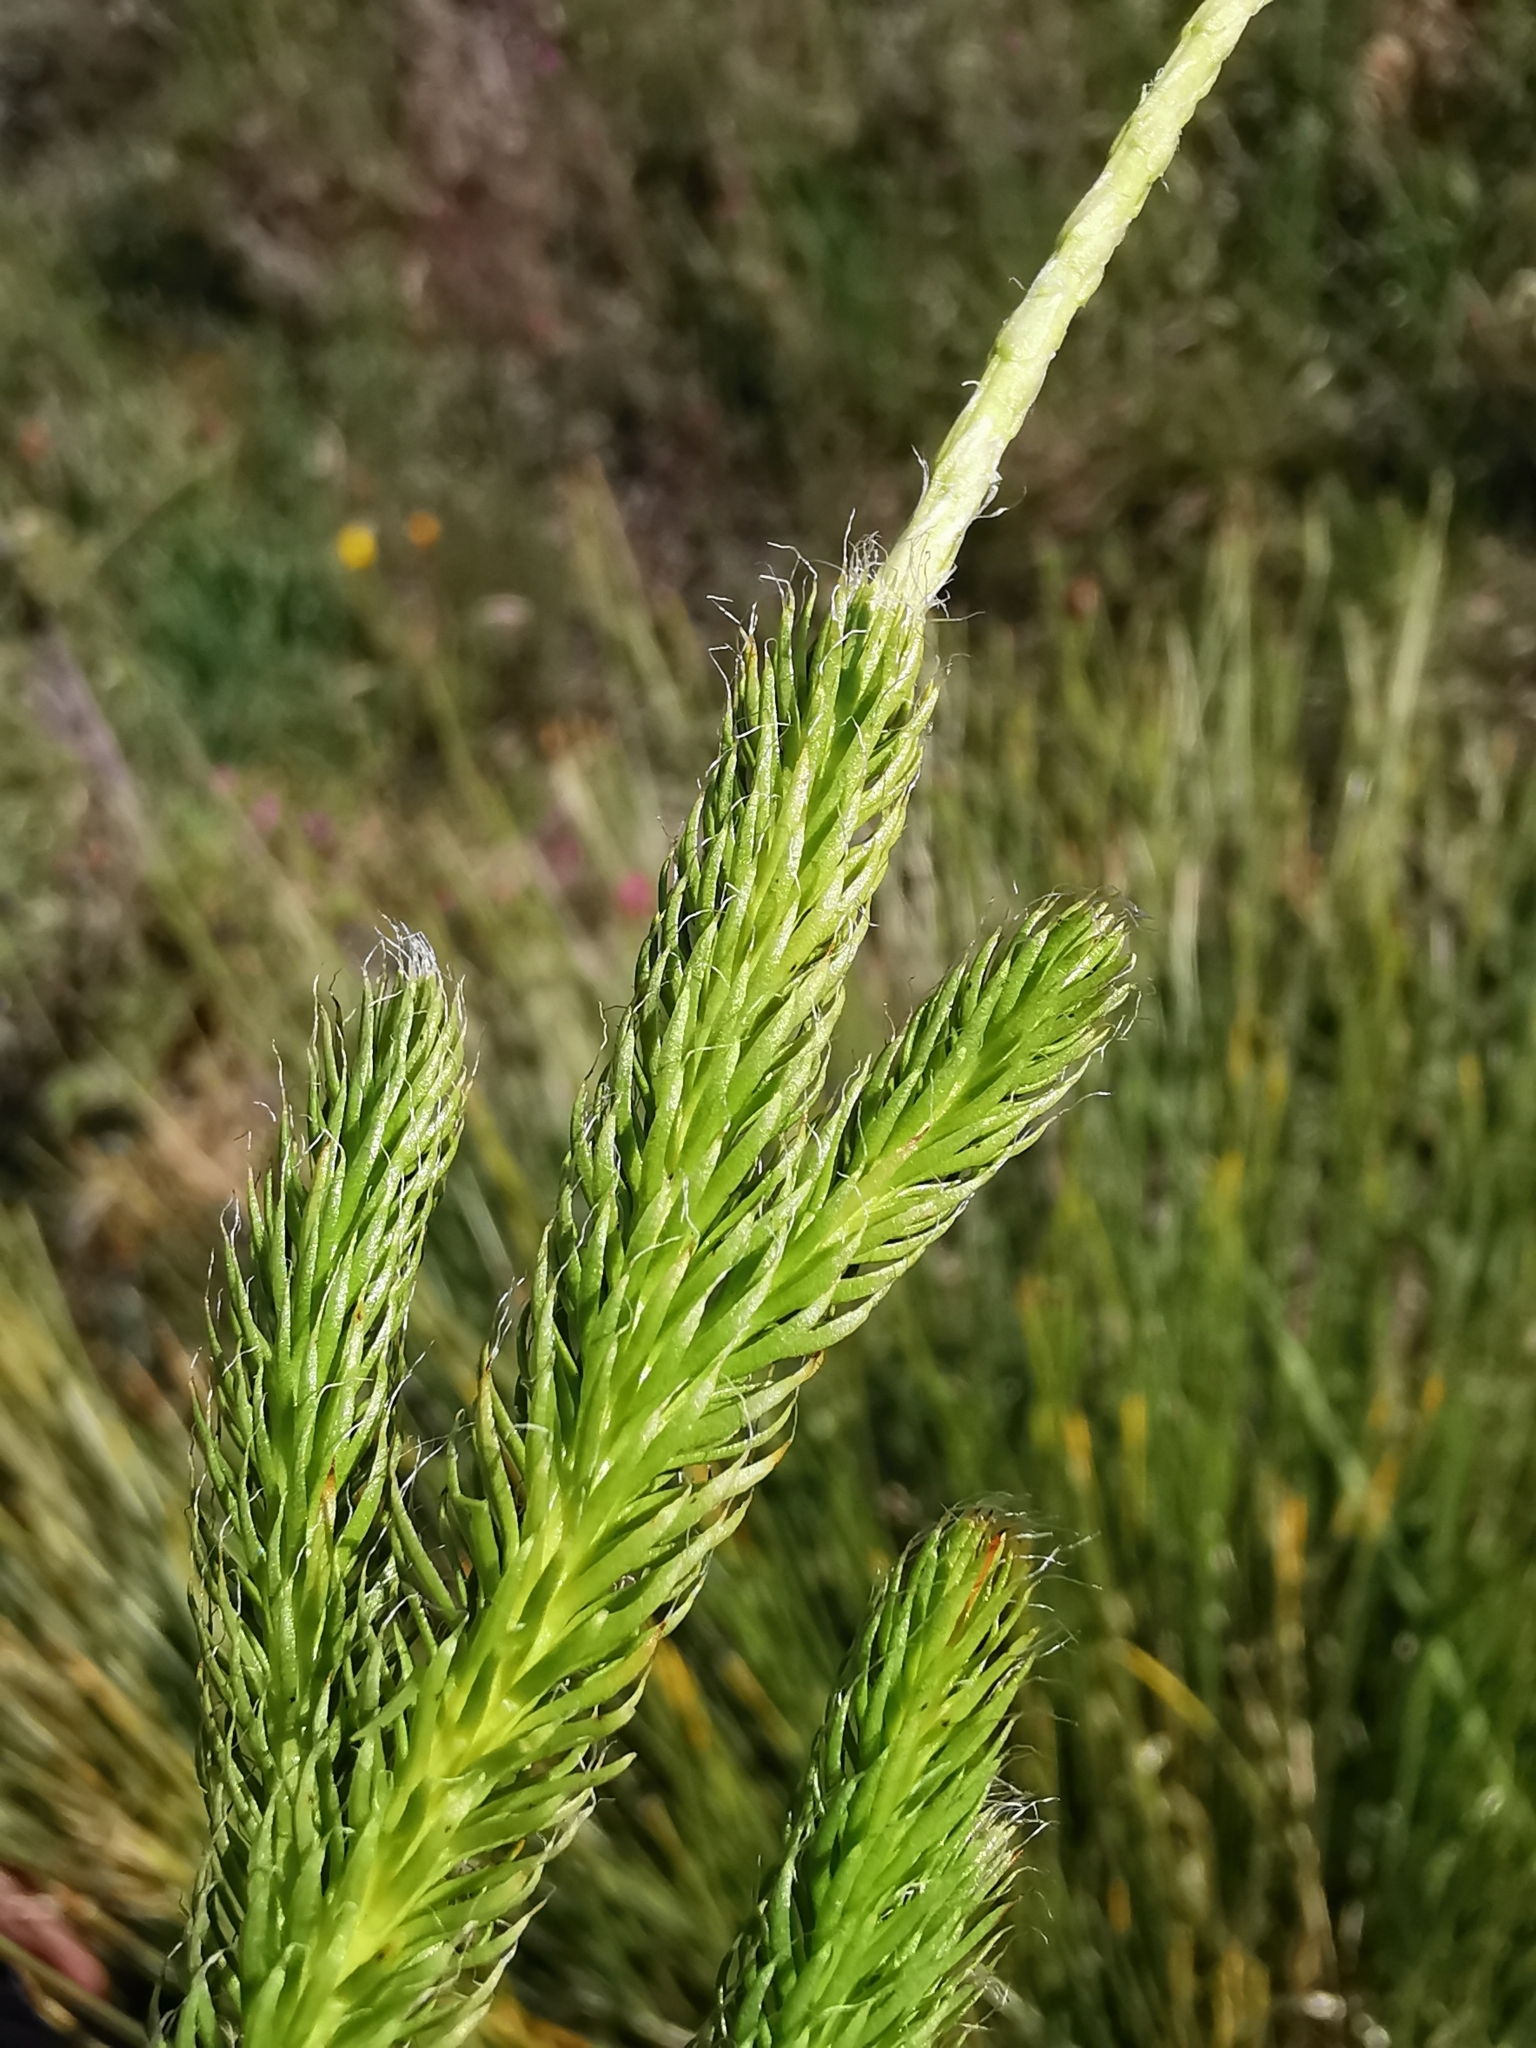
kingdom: Plantae
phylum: Tracheophyta
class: Lycopodiopsida
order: Lycopodiales
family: Lycopodiaceae
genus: Lycopodium
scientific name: Lycopodium clavatum
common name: Stag's-horn clubmoss
